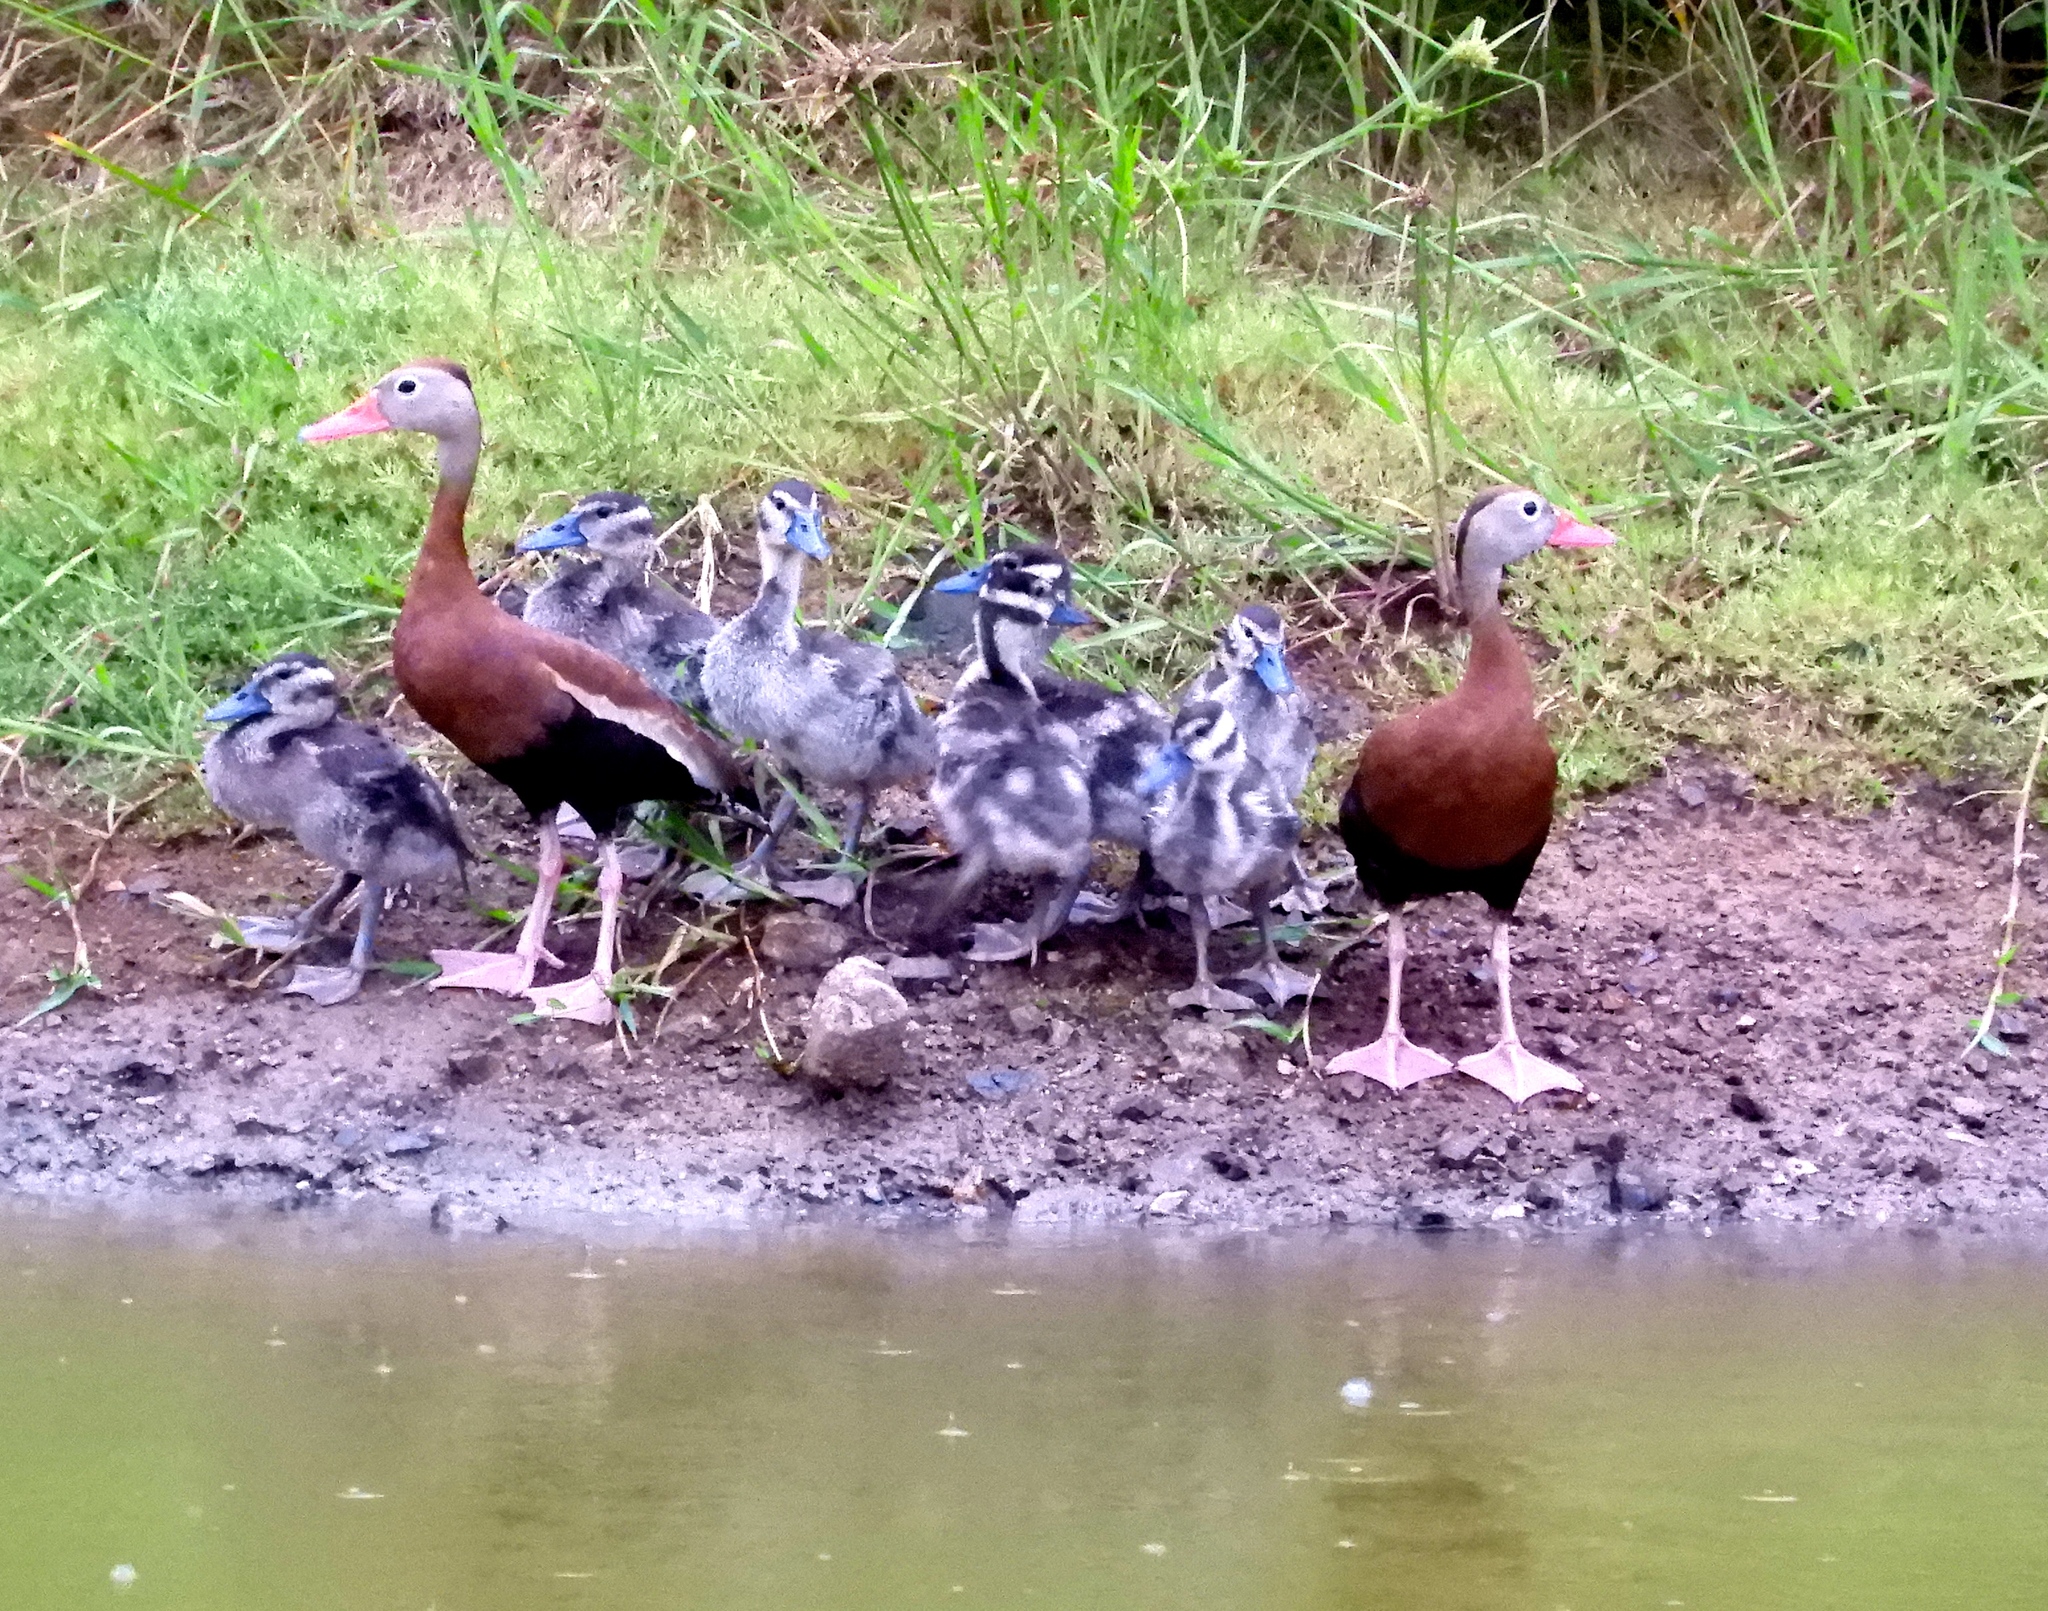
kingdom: Animalia
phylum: Chordata
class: Aves
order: Anseriformes
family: Anatidae
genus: Dendrocygna
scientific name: Dendrocygna autumnalis
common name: Black-bellied whistling duck
